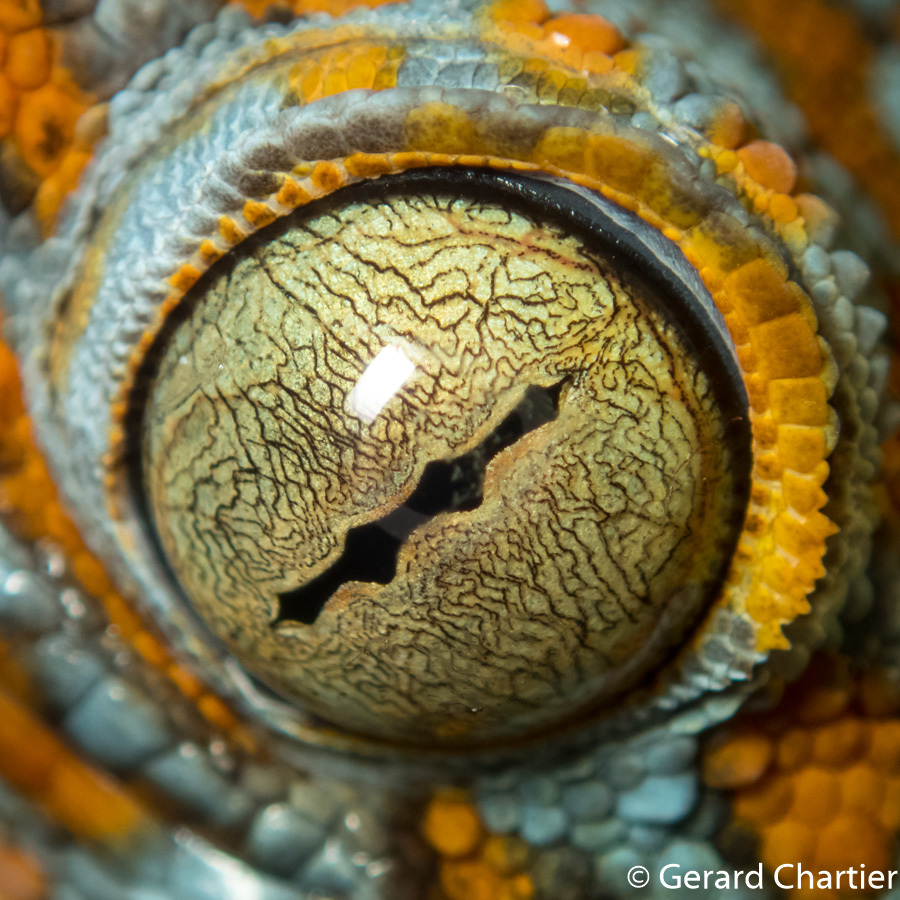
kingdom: Animalia
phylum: Chordata
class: Squamata
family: Gekkonidae
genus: Gekko
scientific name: Gekko gecko
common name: Tokay gecko
